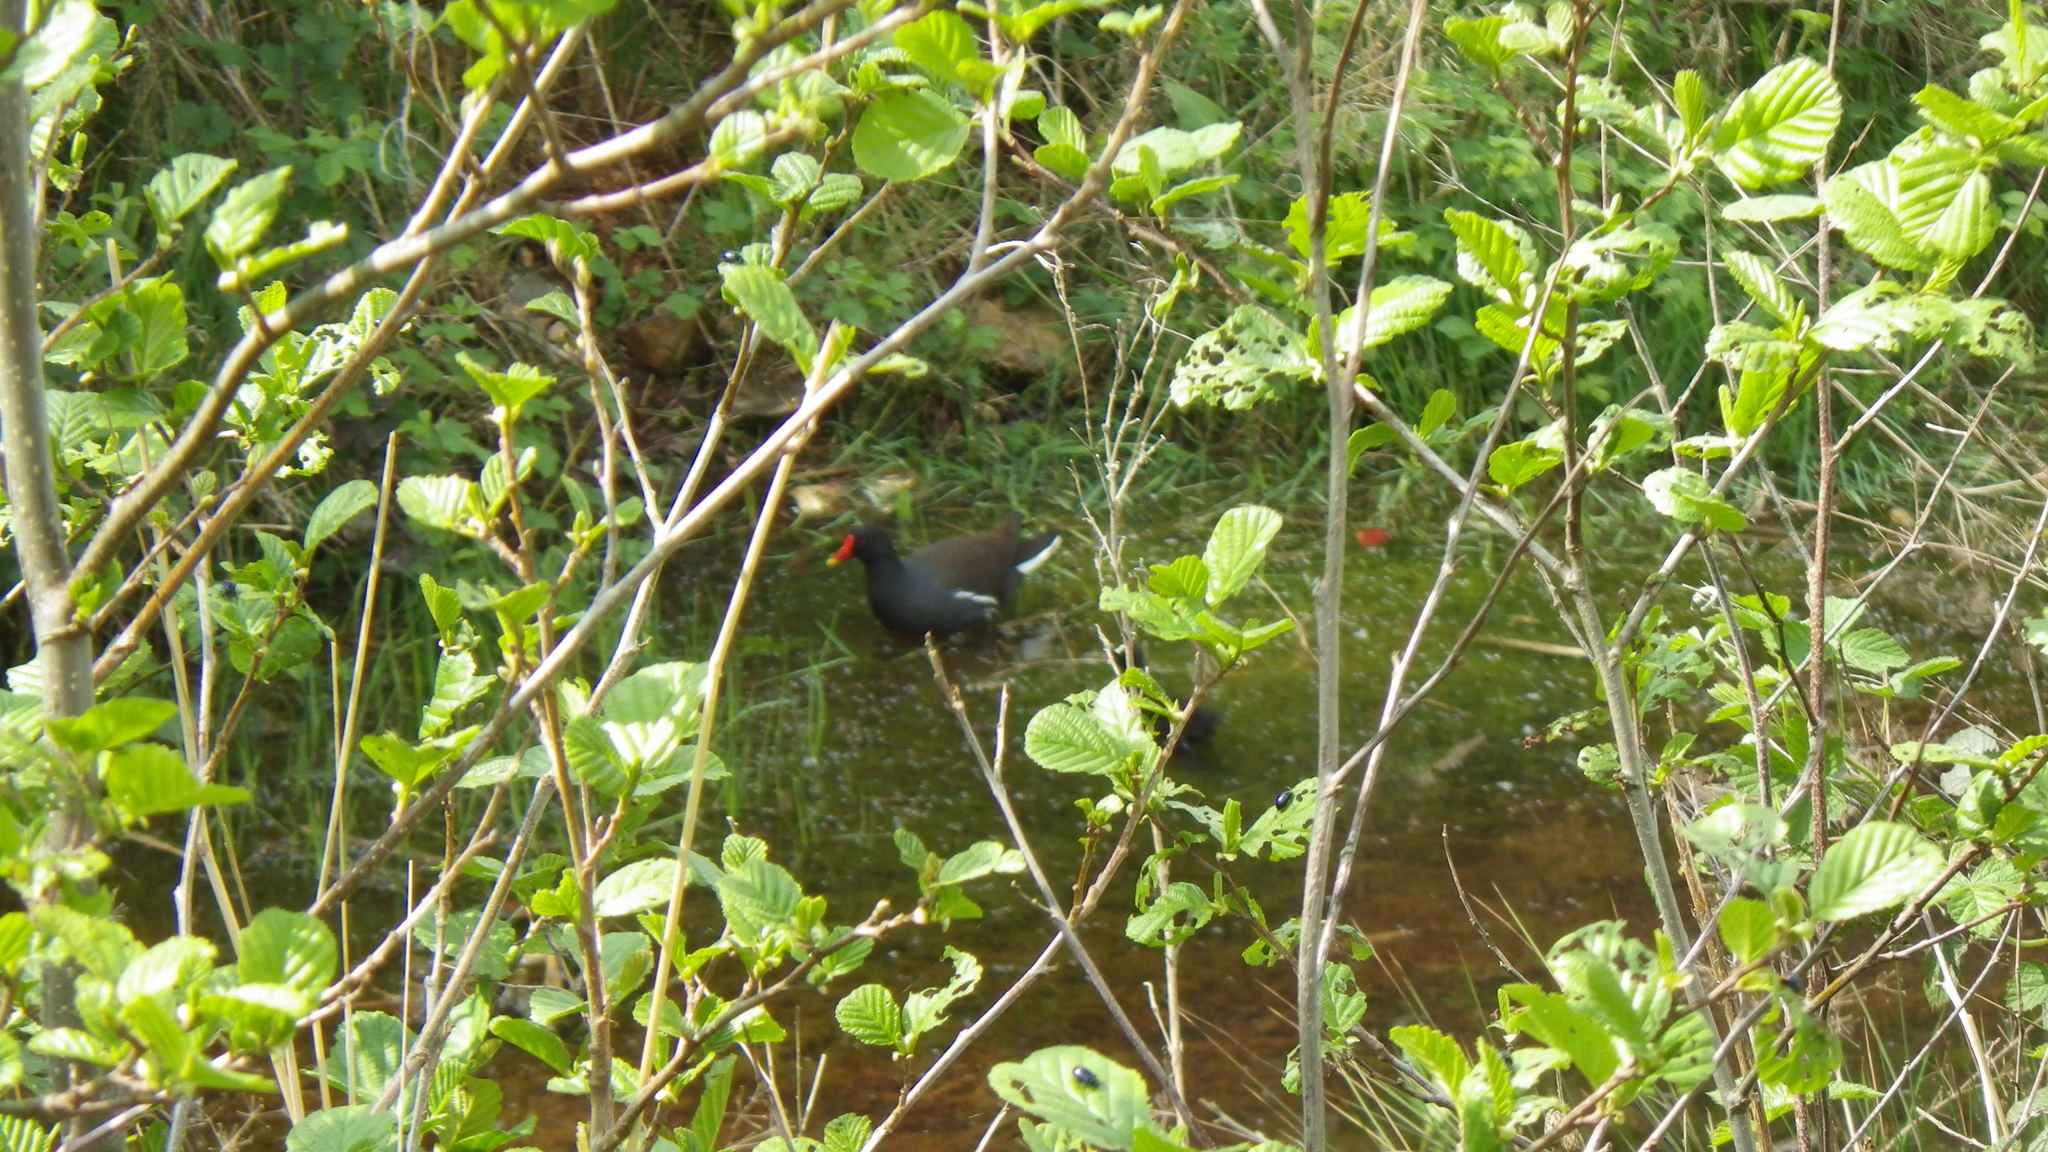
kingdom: Animalia
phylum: Chordata
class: Aves
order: Gruiformes
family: Rallidae
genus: Gallinula
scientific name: Gallinula chloropus
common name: Common moorhen
